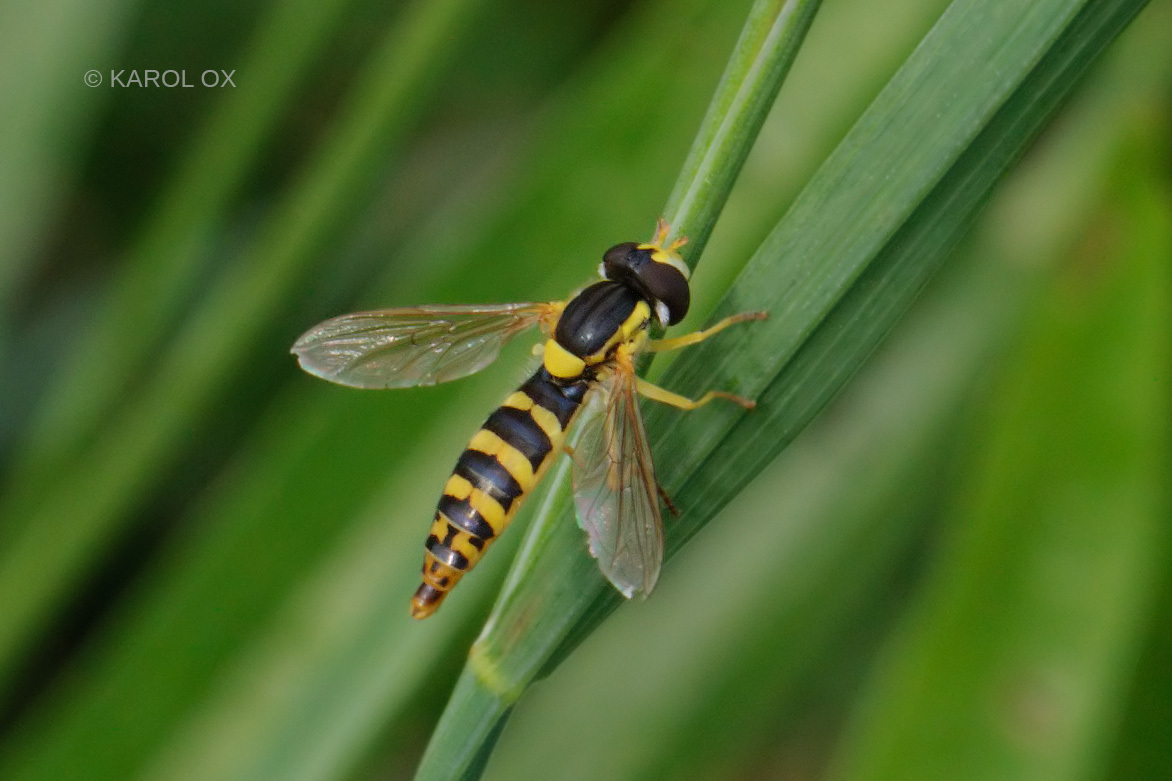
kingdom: Animalia
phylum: Arthropoda
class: Insecta
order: Diptera
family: Syrphidae
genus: Sphaerophoria
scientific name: Sphaerophoria
